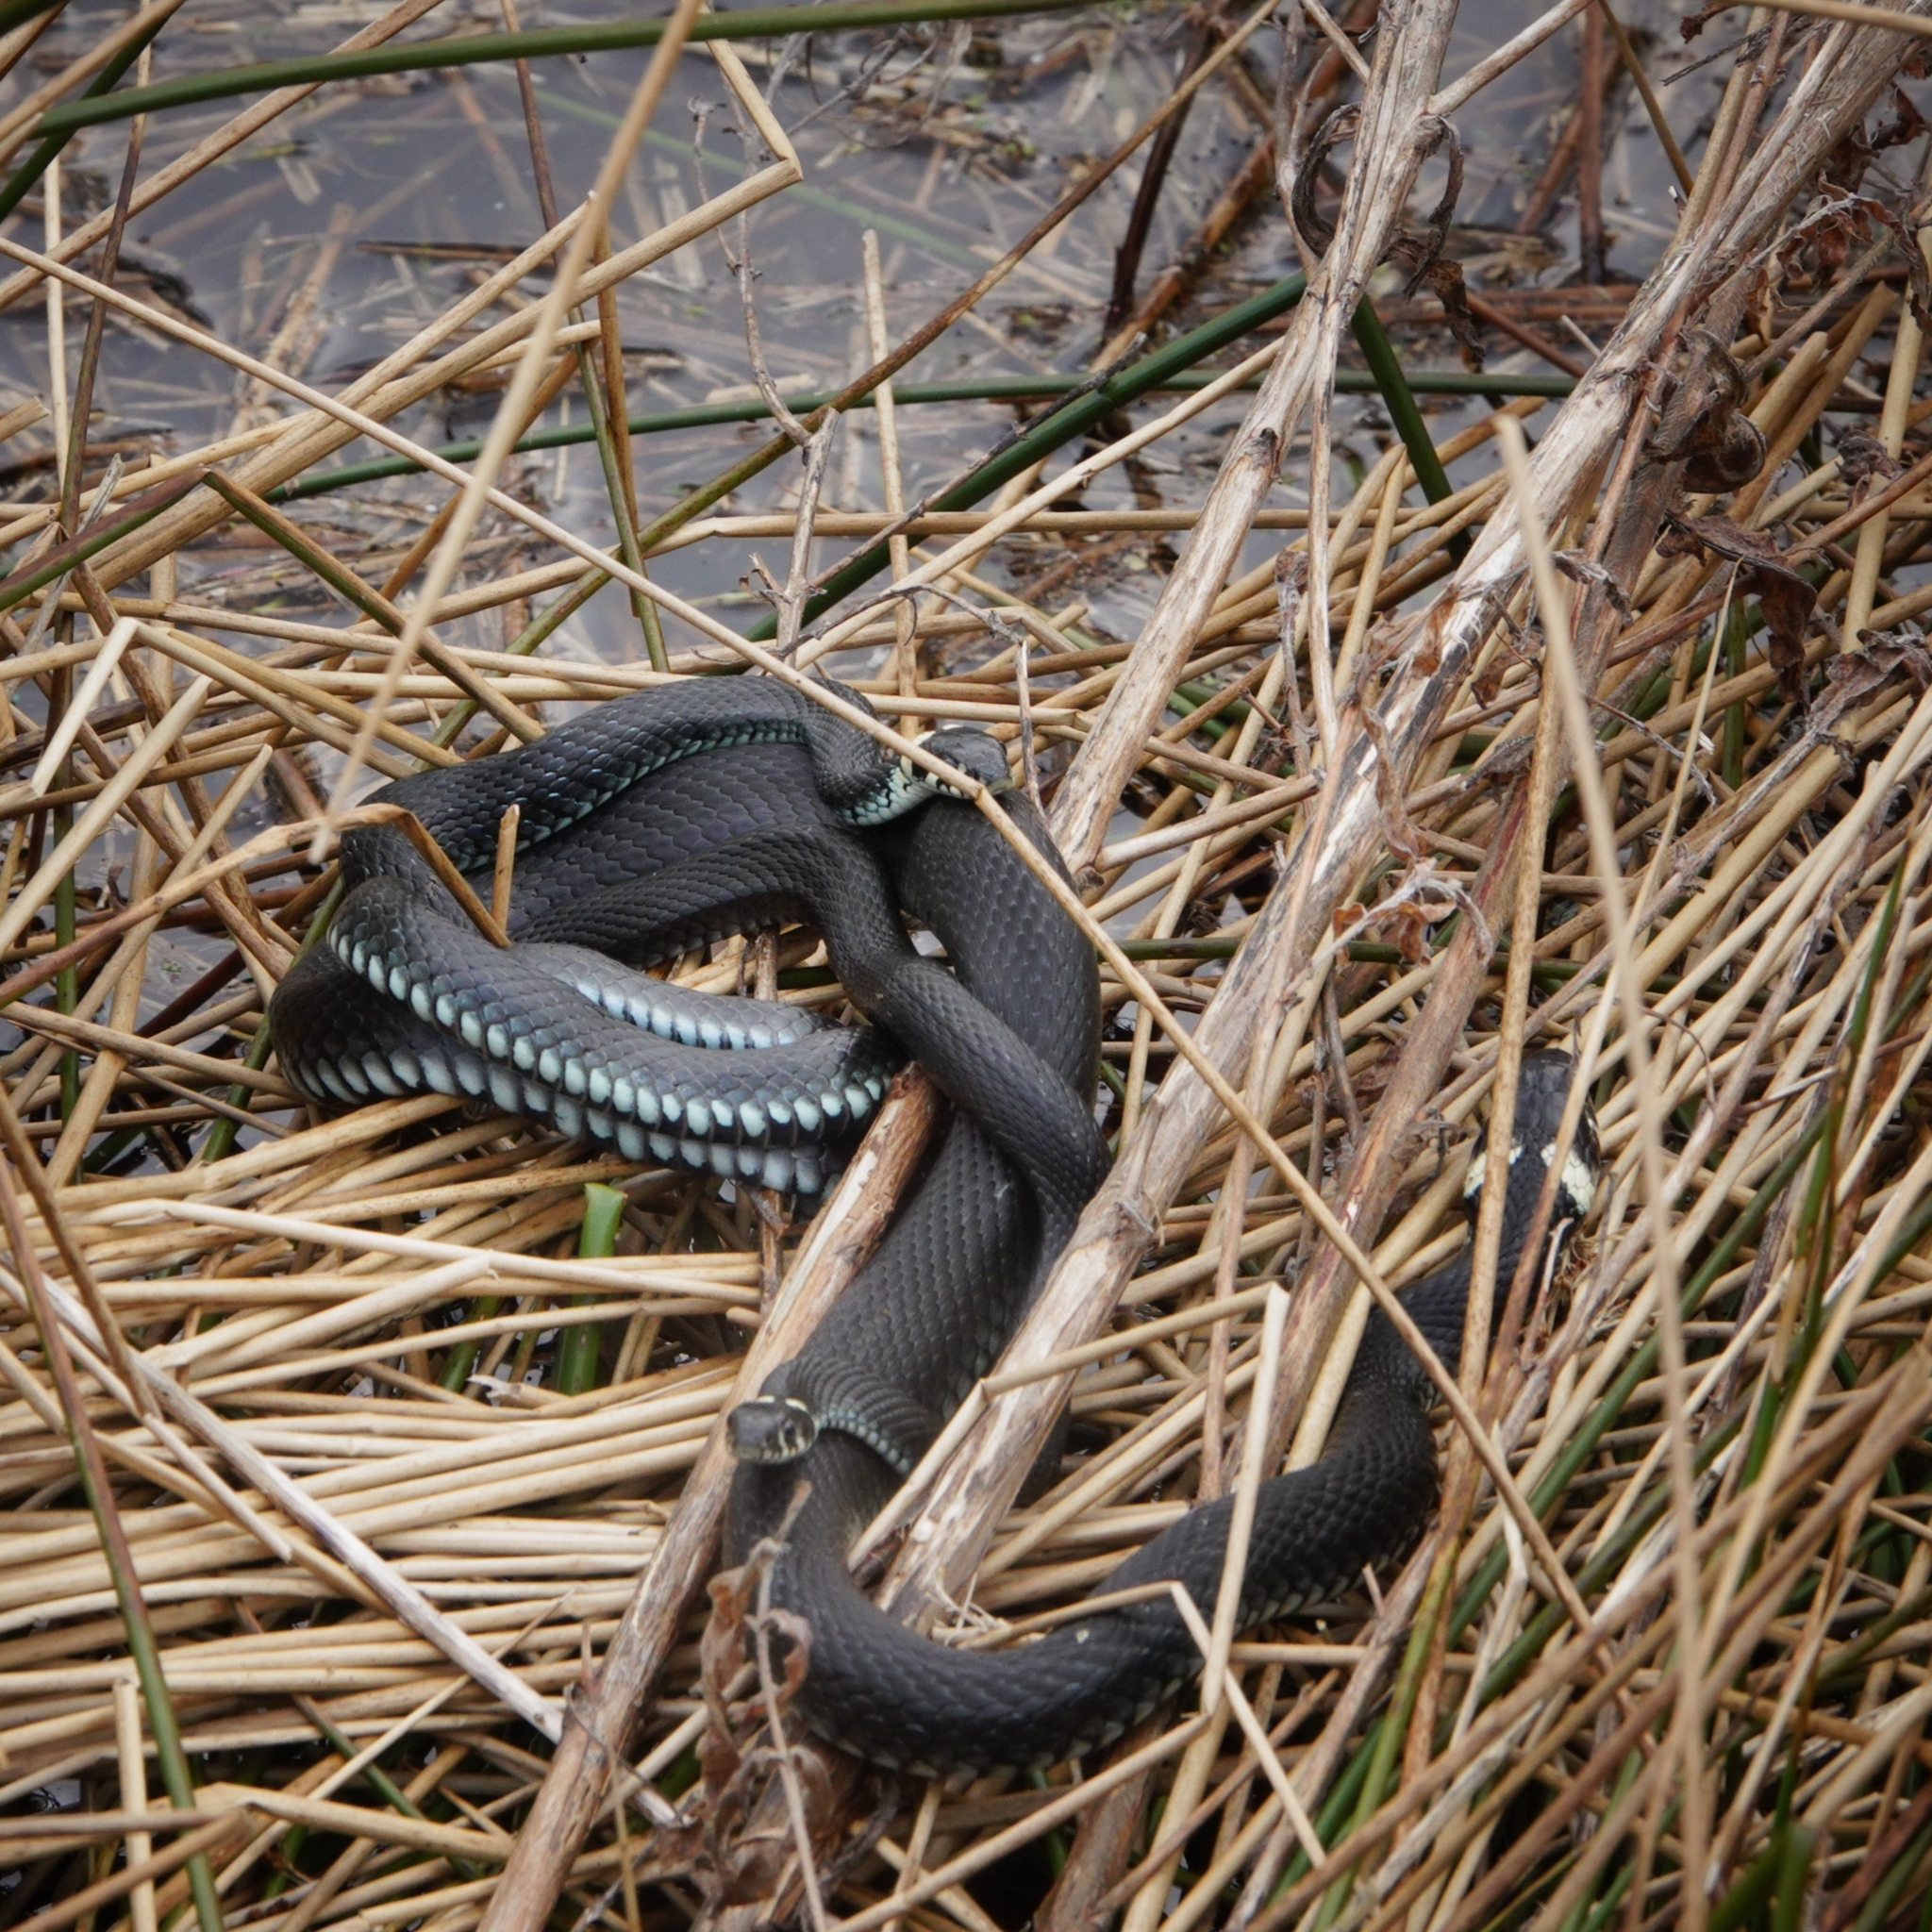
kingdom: Animalia
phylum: Chordata
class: Squamata
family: Colubridae
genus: Natrix
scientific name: Natrix natrix
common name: Grass snake
